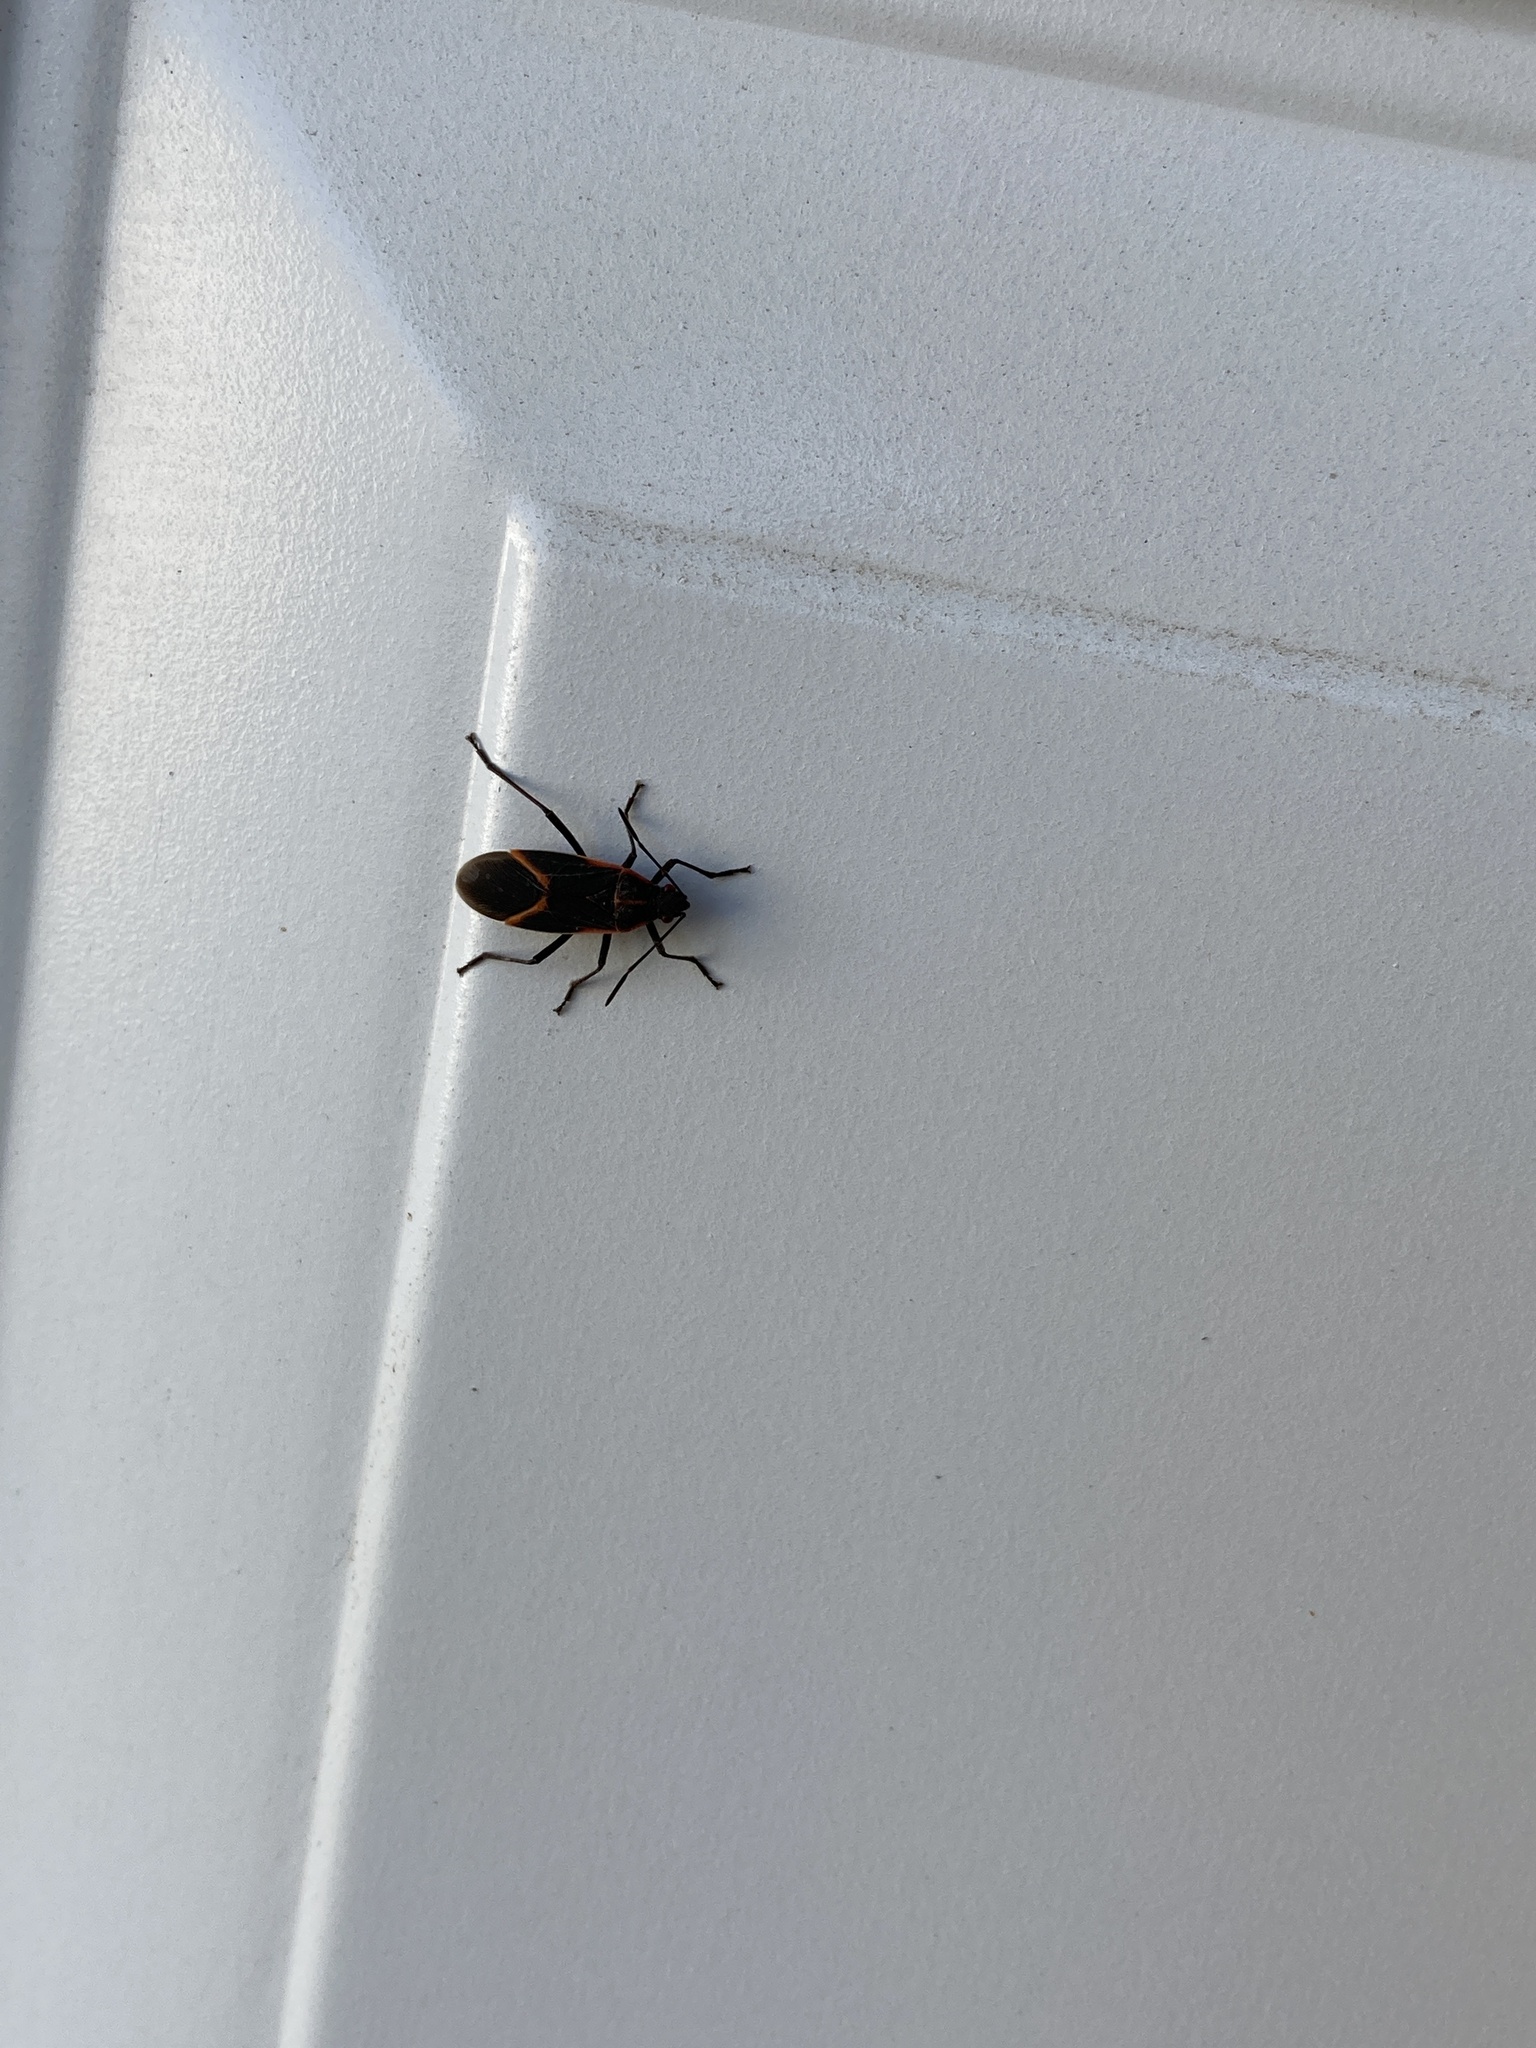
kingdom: Animalia
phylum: Arthropoda
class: Insecta
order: Hemiptera
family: Rhopalidae
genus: Boisea
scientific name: Boisea trivittata
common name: Boxelder bug
